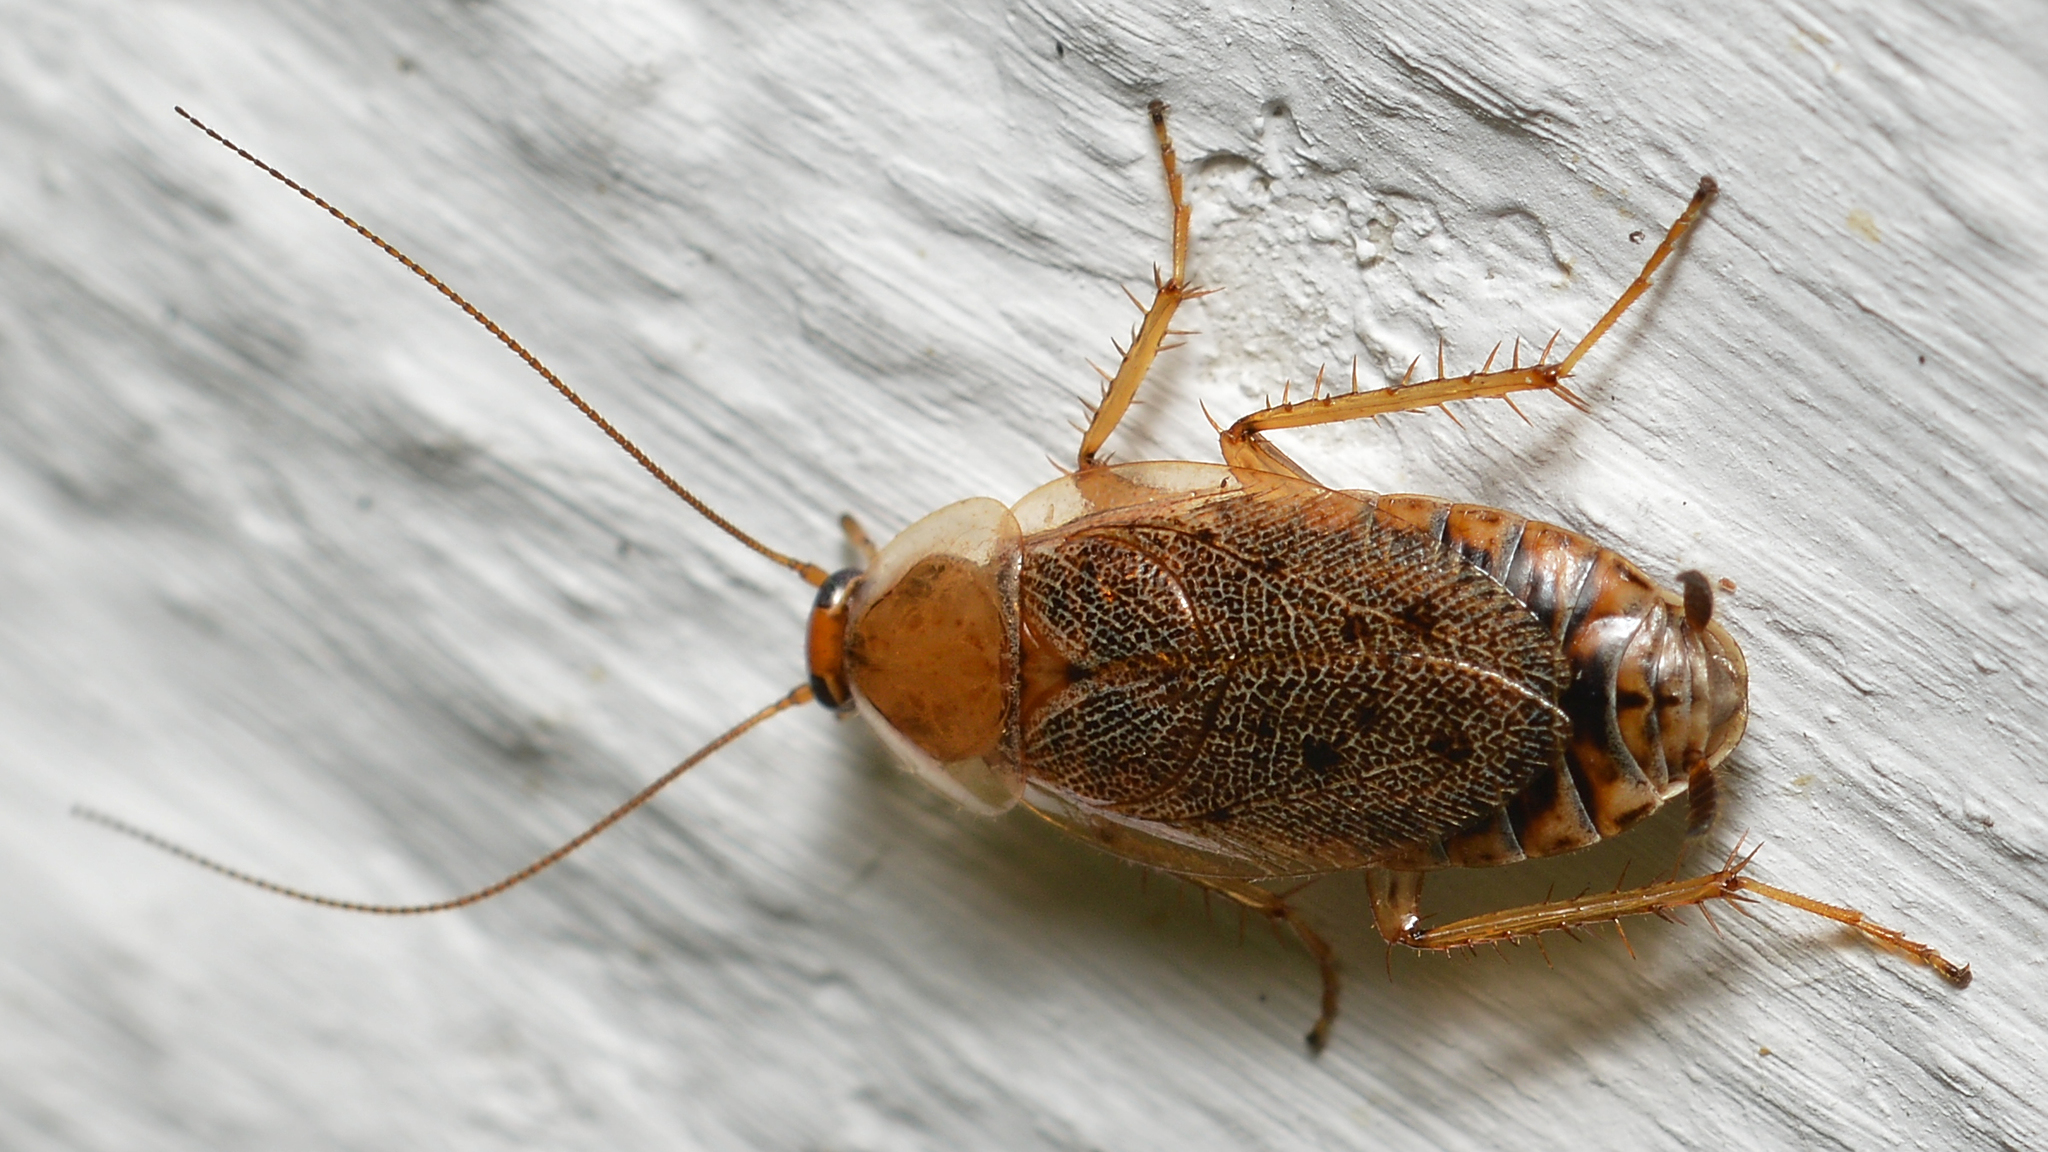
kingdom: Animalia
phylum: Arthropoda
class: Insecta
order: Blattodea
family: Ectobiidae
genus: Ectobius
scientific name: Ectobius lapponicus
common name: Dusky cockroach
